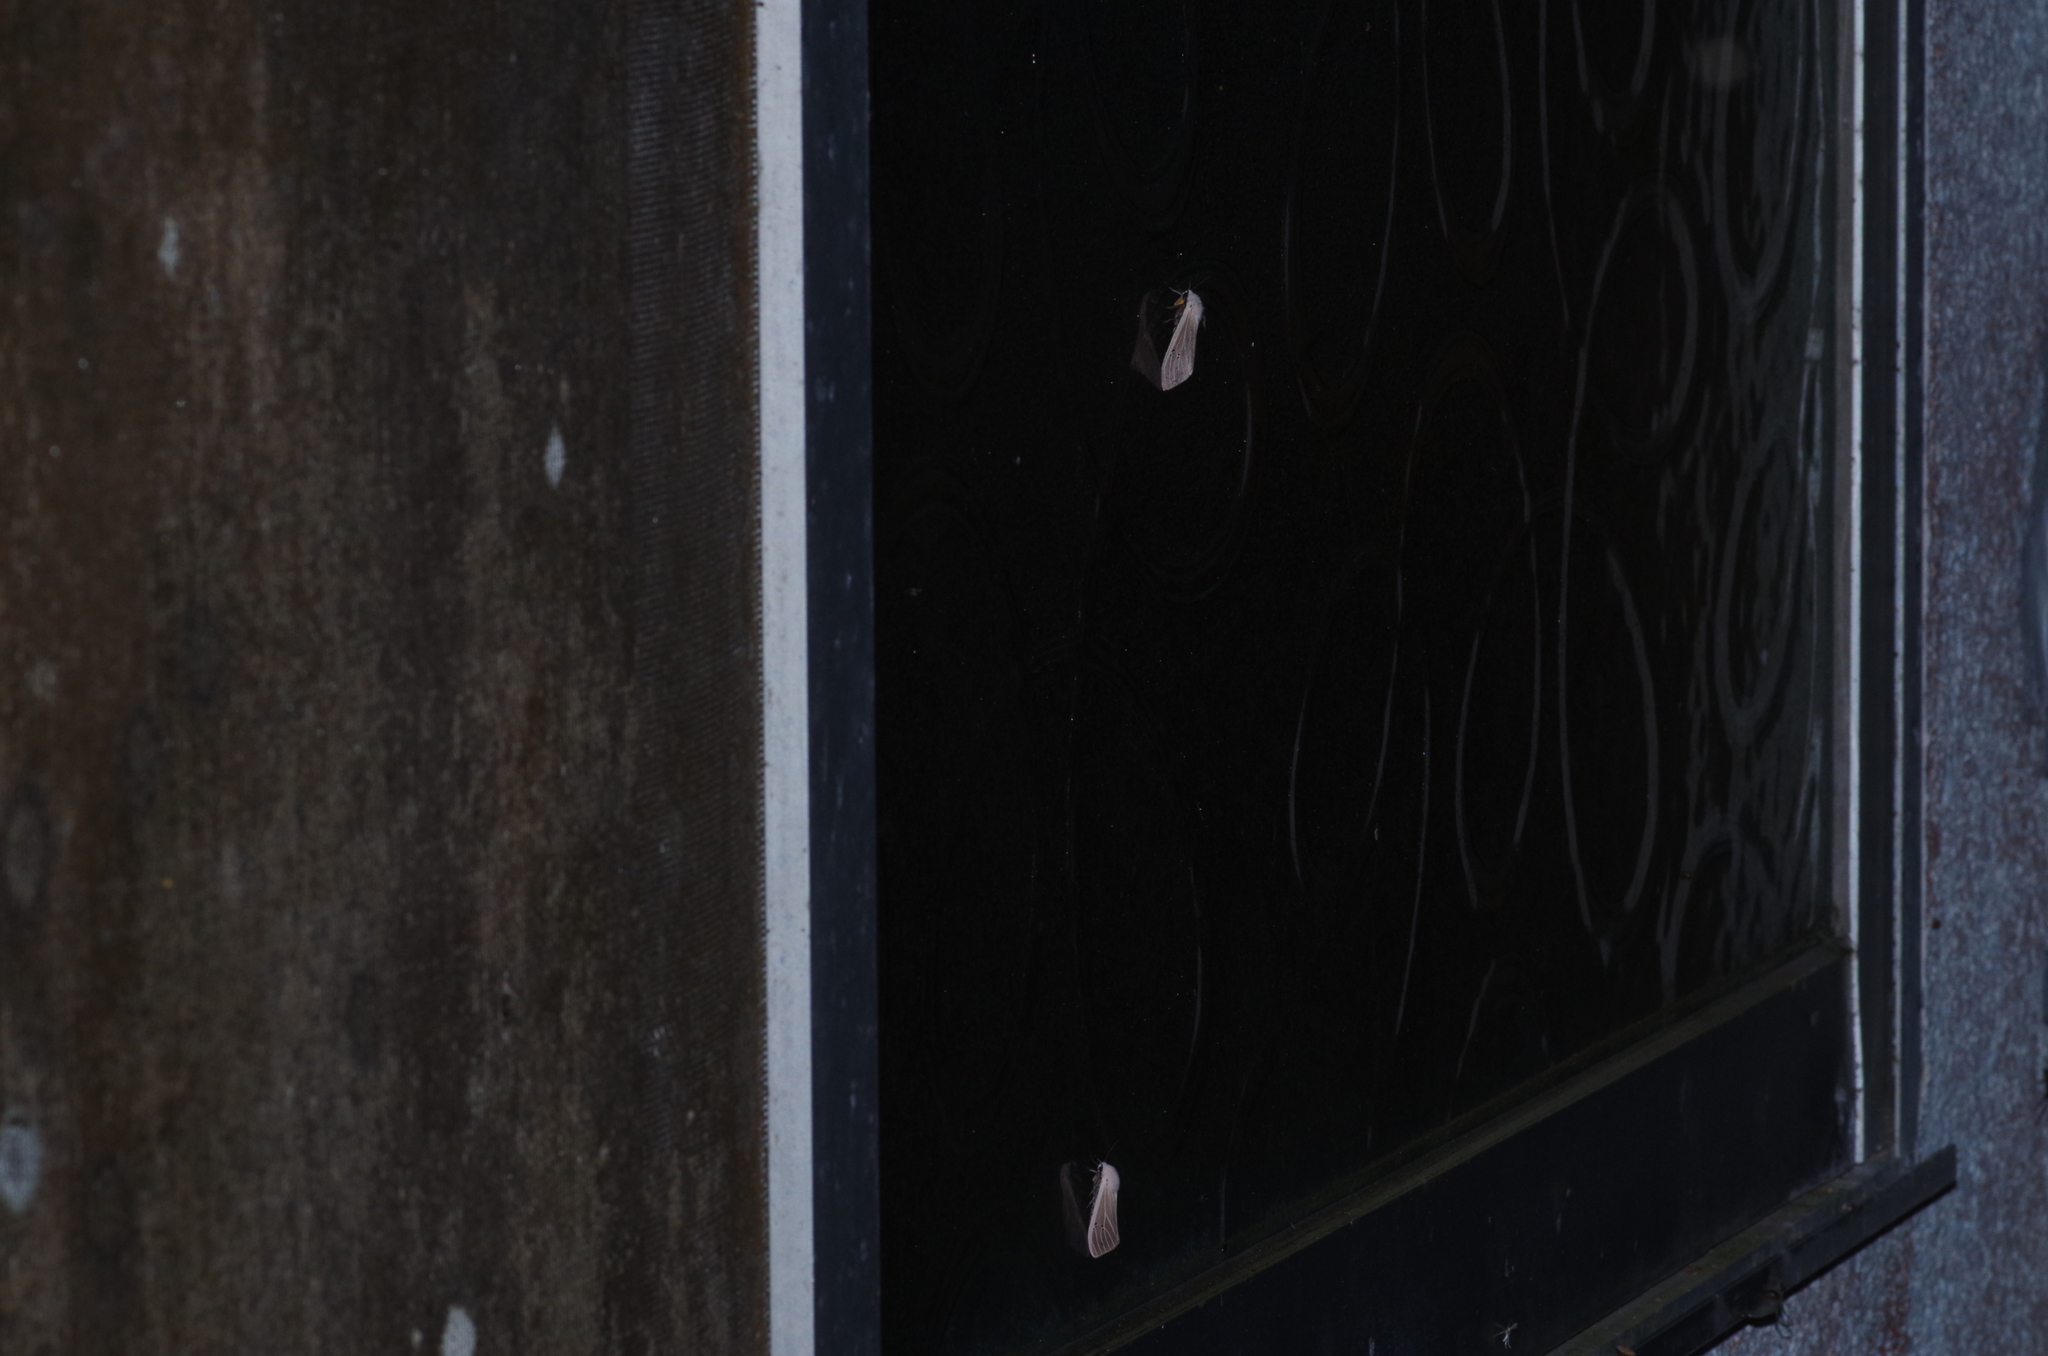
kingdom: Animalia
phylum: Arthropoda
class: Insecta
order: Lepidoptera
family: Erebidae
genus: Creatonotos
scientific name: Creatonotos transiens
